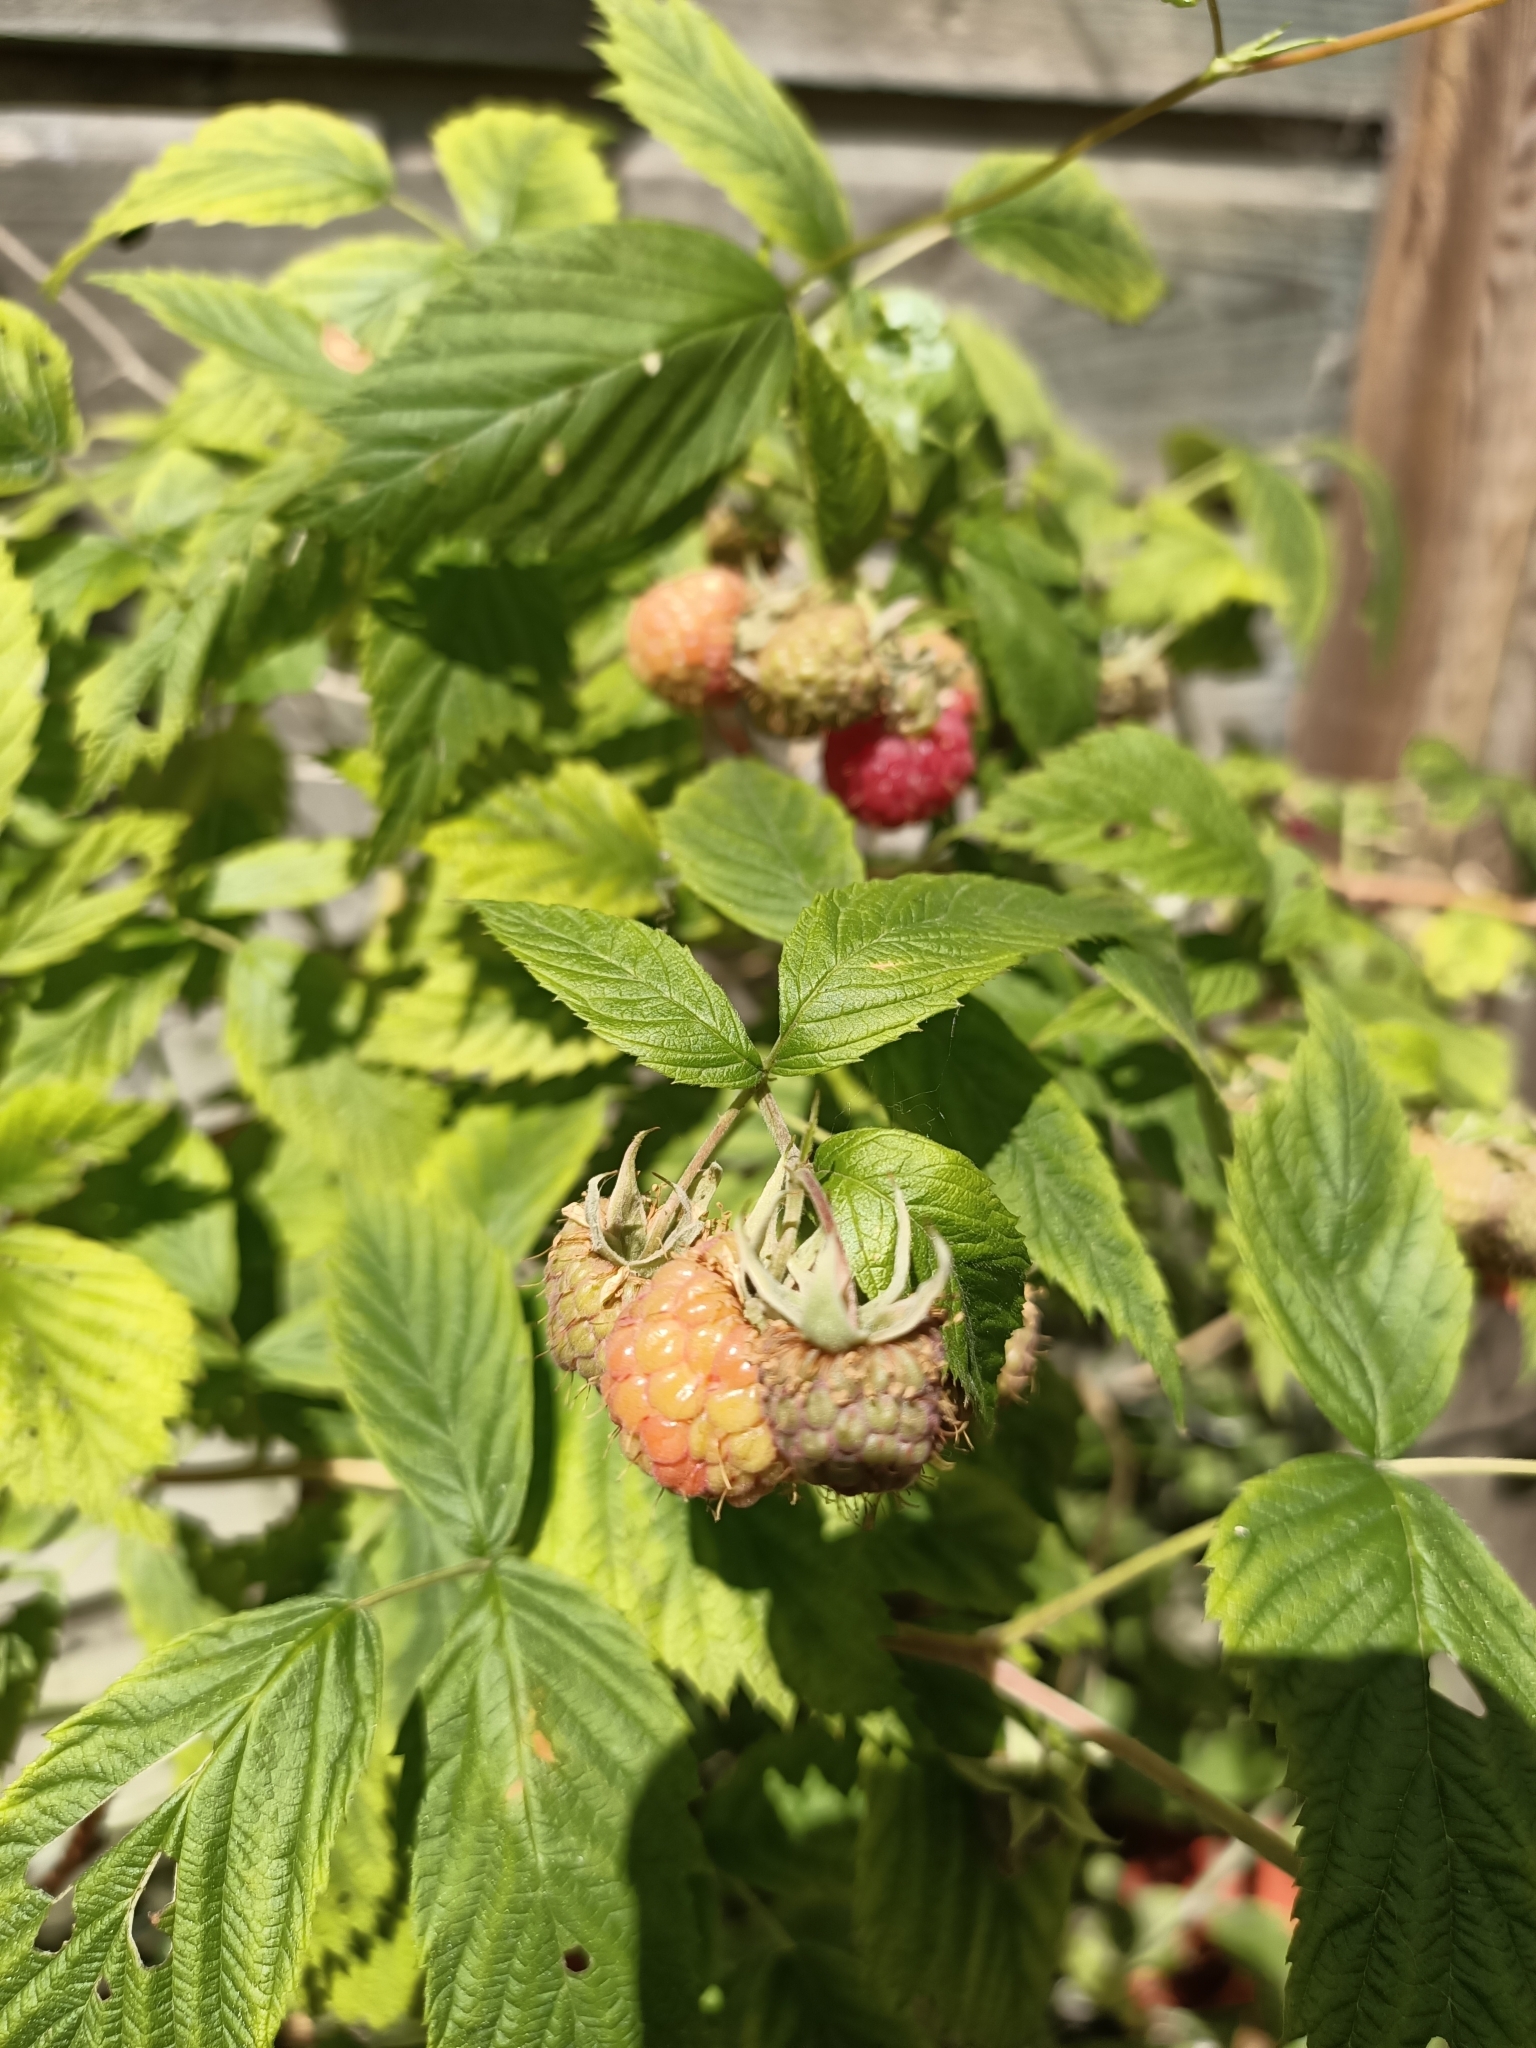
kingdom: Plantae
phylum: Tracheophyta
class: Magnoliopsida
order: Rosales
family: Rosaceae
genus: Rubus
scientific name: Rubus idaeus
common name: Raspberry
